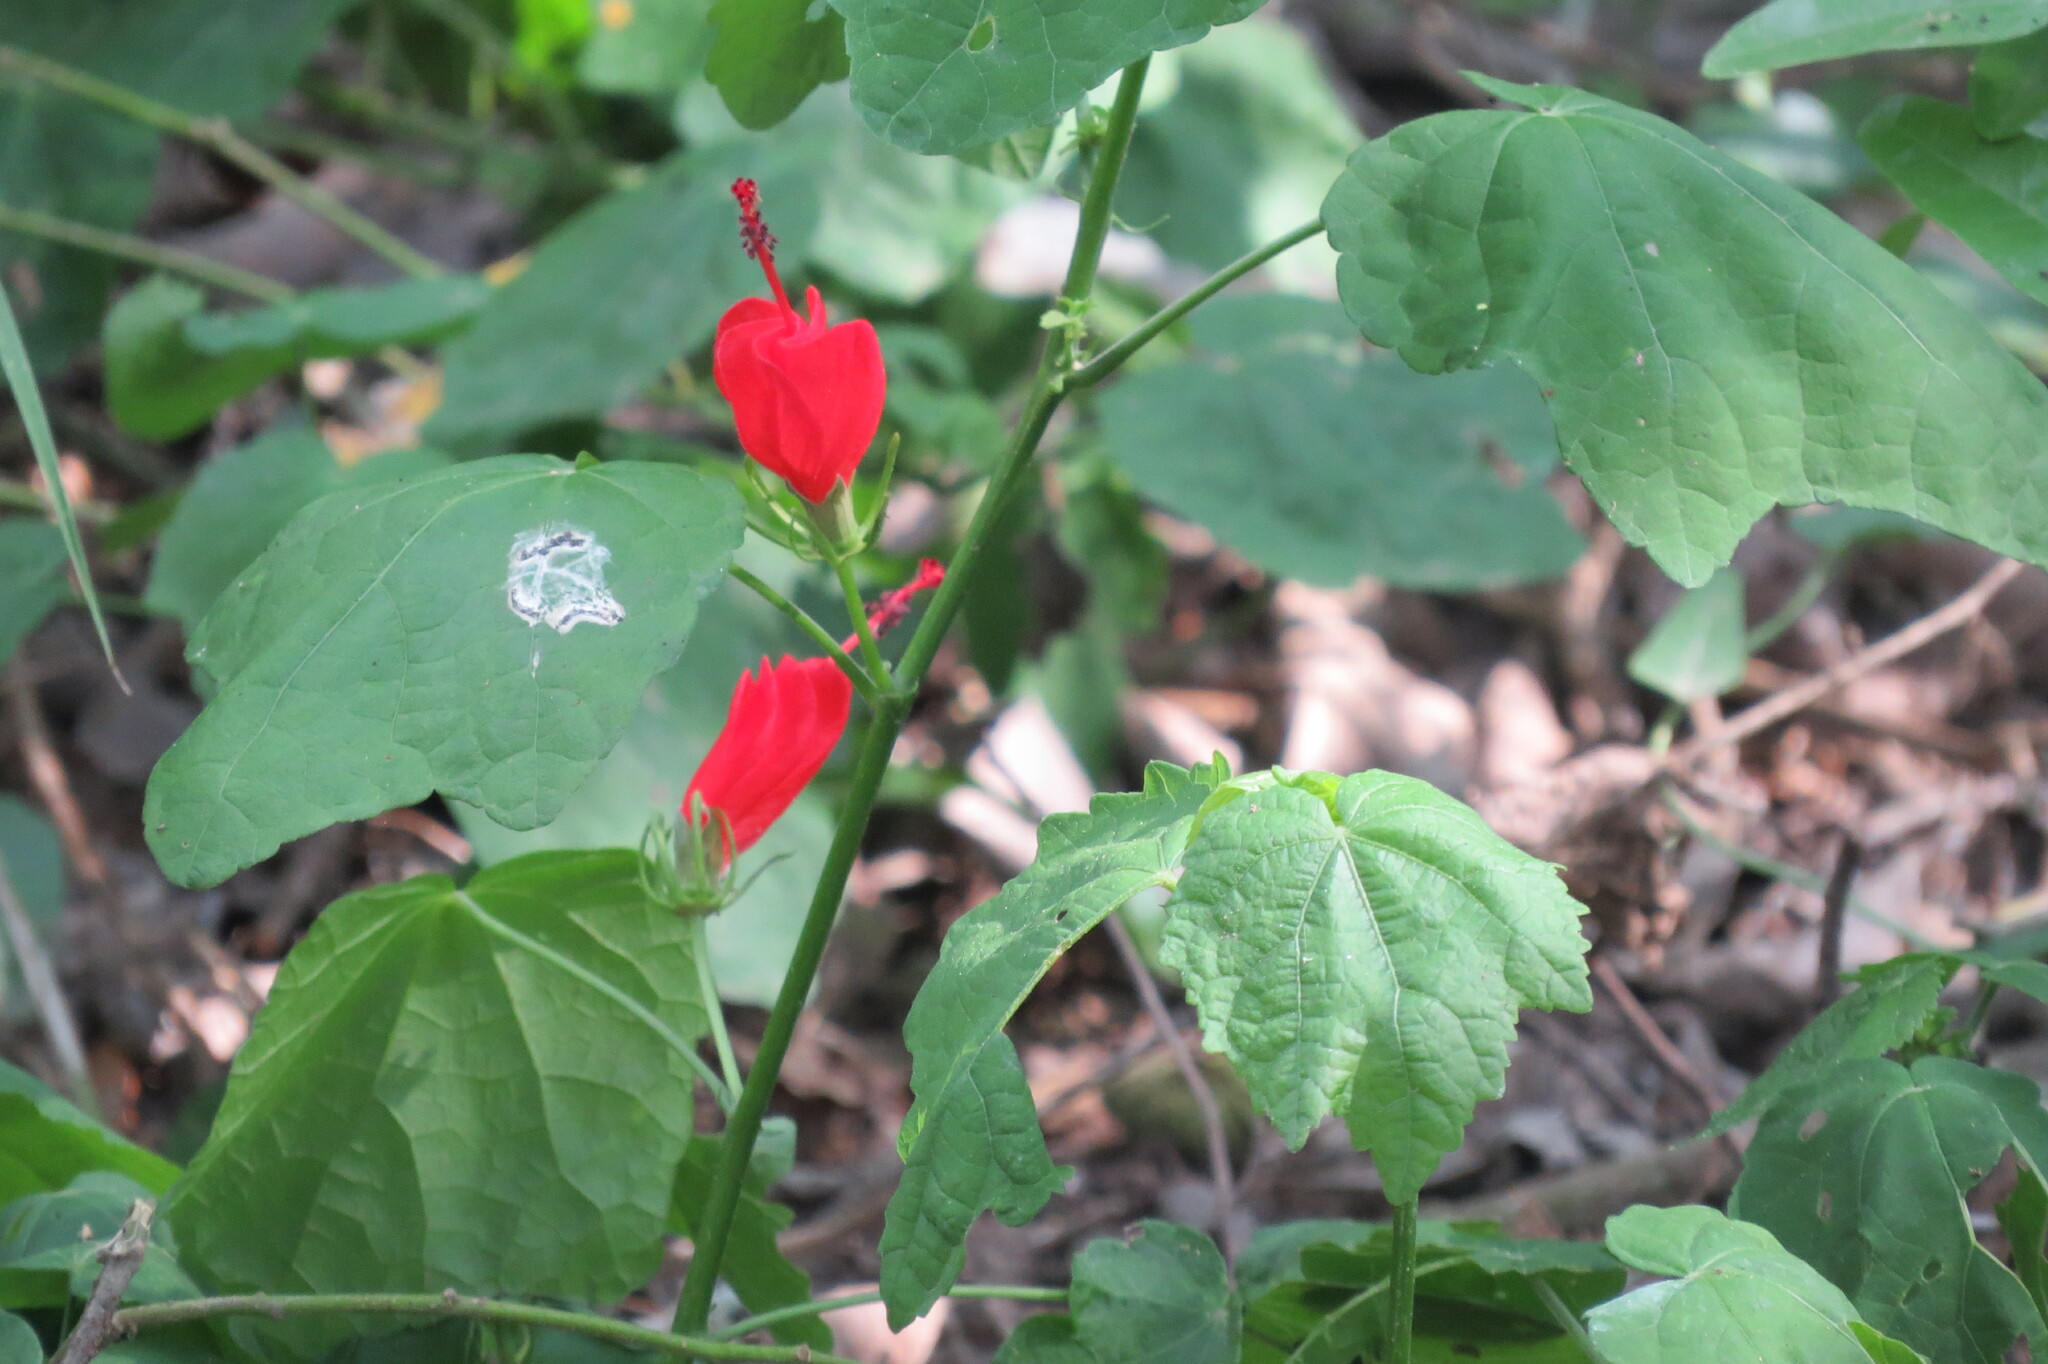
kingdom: Plantae
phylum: Tracheophyta
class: Magnoliopsida
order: Malvales
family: Malvaceae
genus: Malvaviscus
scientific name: Malvaviscus arboreus
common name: Wax mallow
